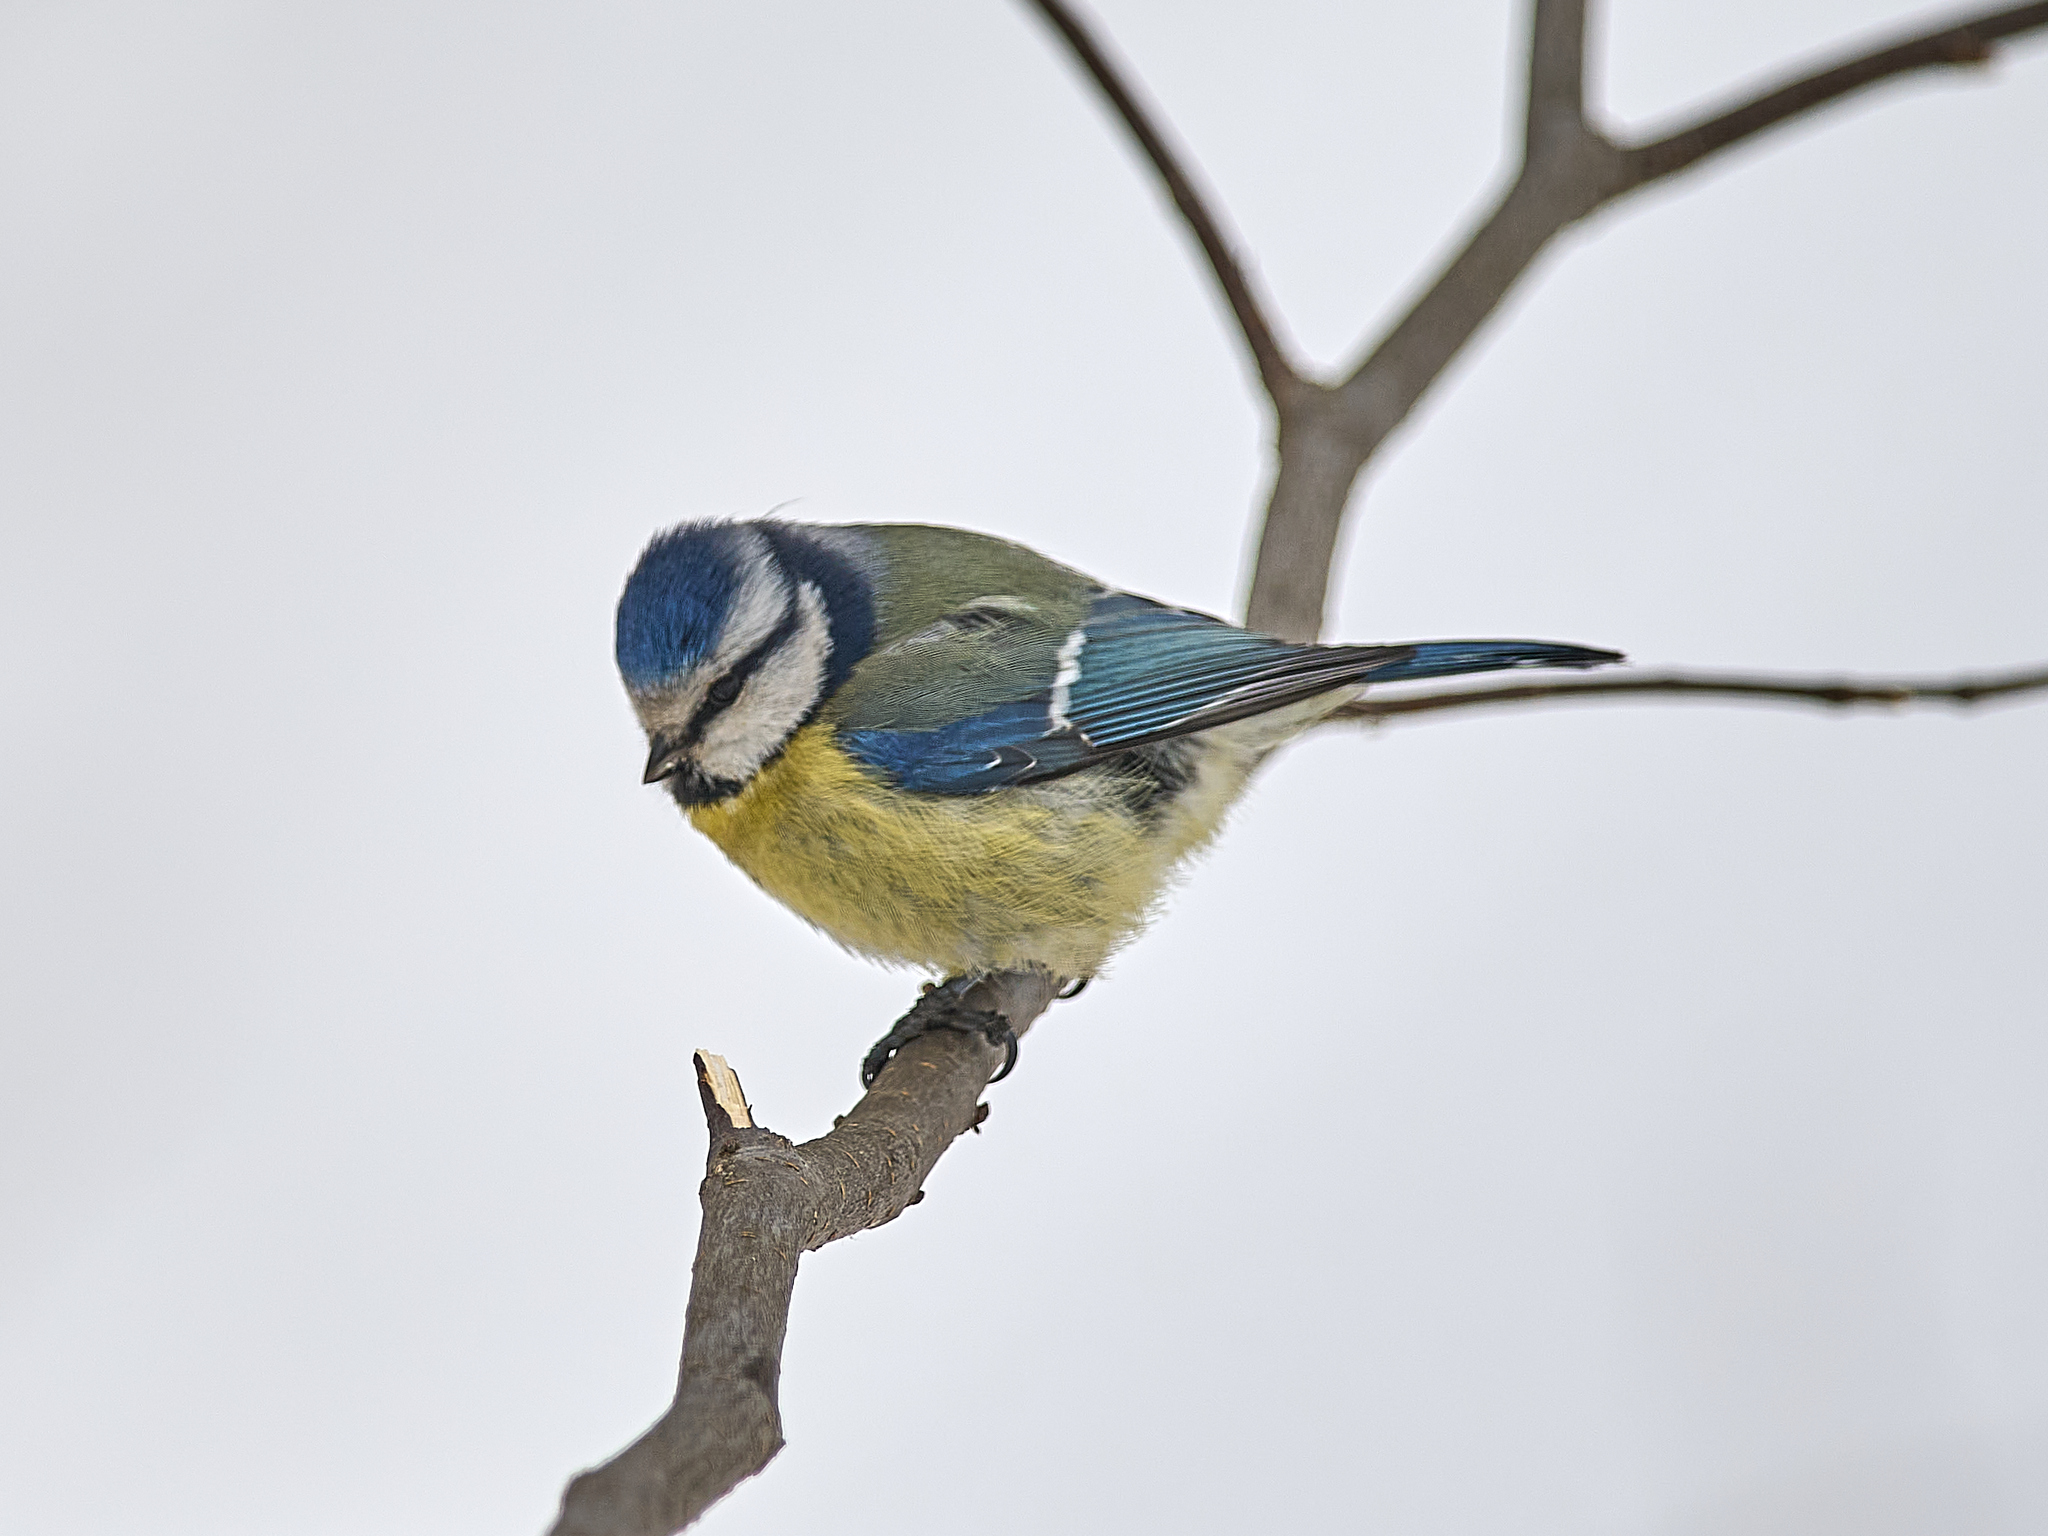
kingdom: Animalia
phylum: Chordata
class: Aves
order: Passeriformes
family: Paridae
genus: Cyanistes
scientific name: Cyanistes caeruleus
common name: Eurasian blue tit
